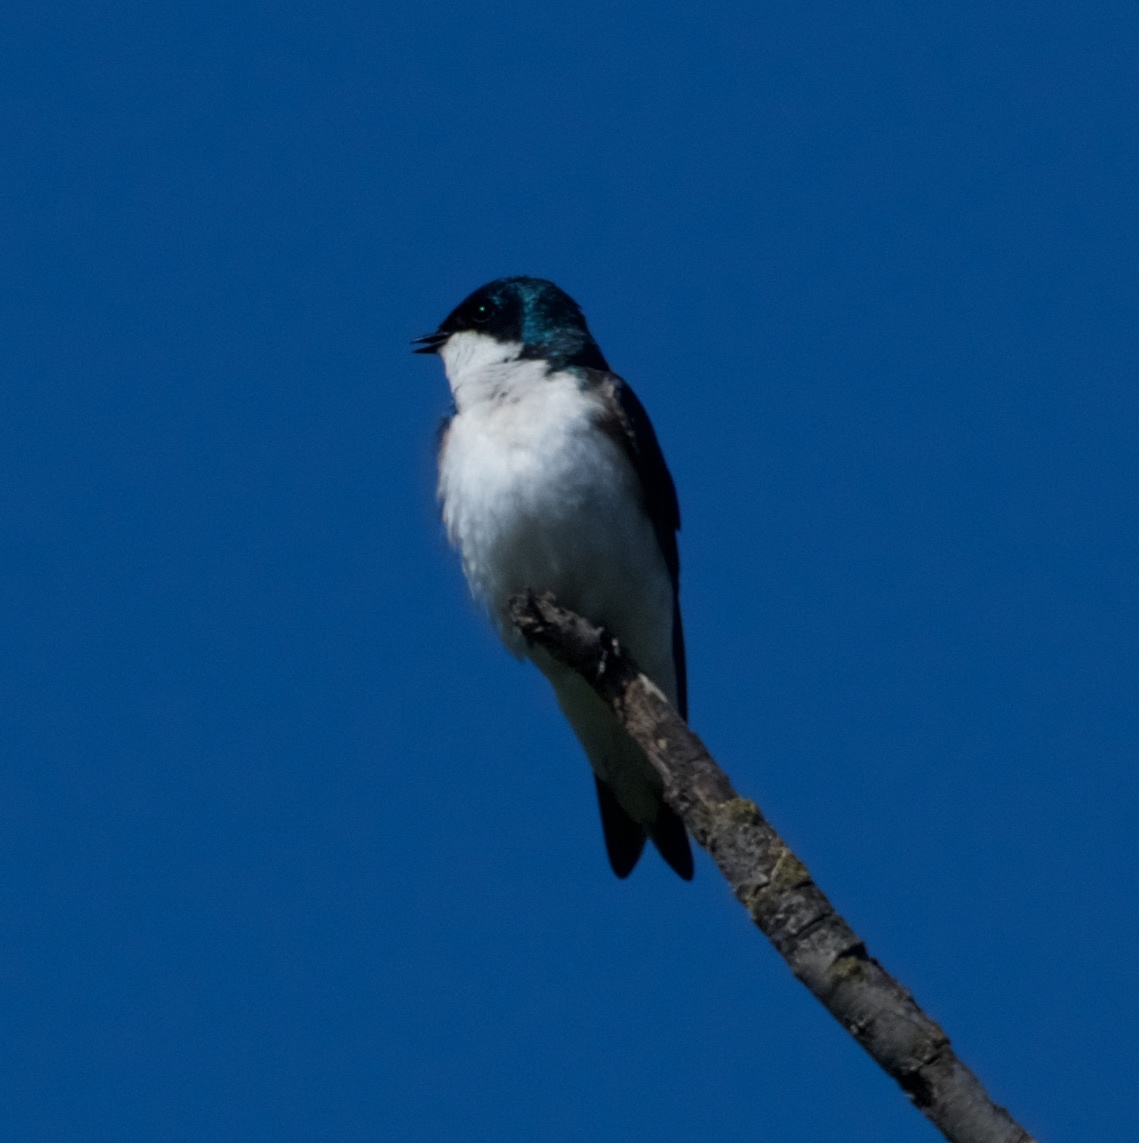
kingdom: Animalia
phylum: Chordata
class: Aves
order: Passeriformes
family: Hirundinidae
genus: Tachycineta
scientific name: Tachycineta bicolor
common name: Tree swallow
